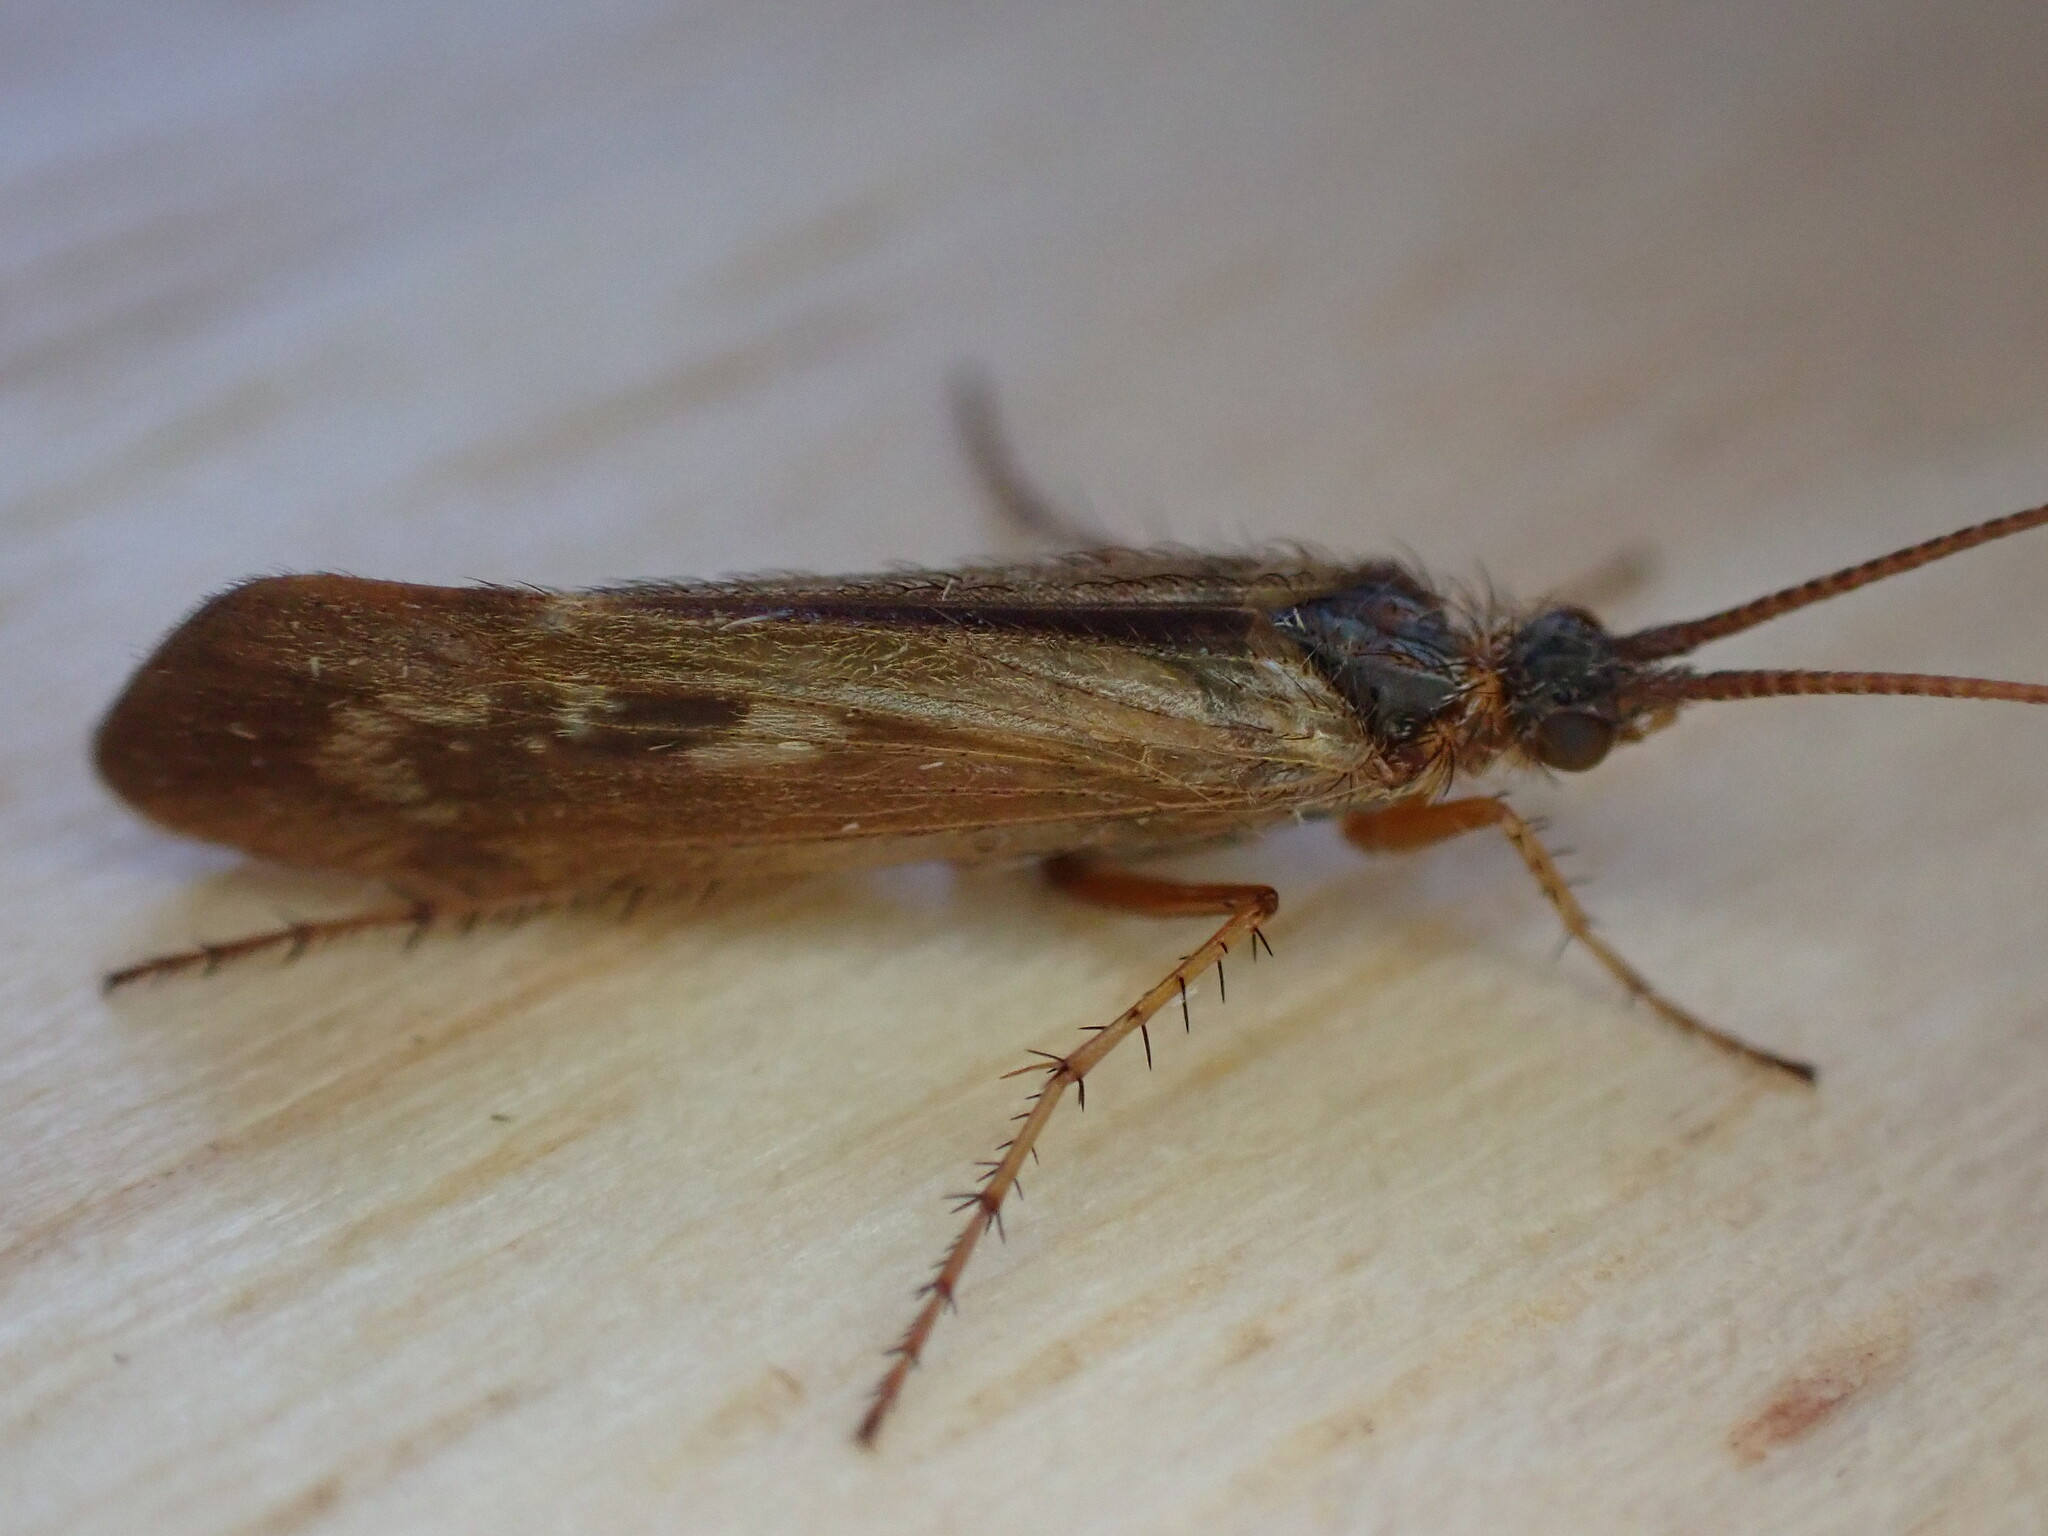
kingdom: Animalia
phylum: Arthropoda
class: Insecta
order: Trichoptera
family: Limnephilidae
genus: Limnephilus
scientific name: Limnephilus auricula
